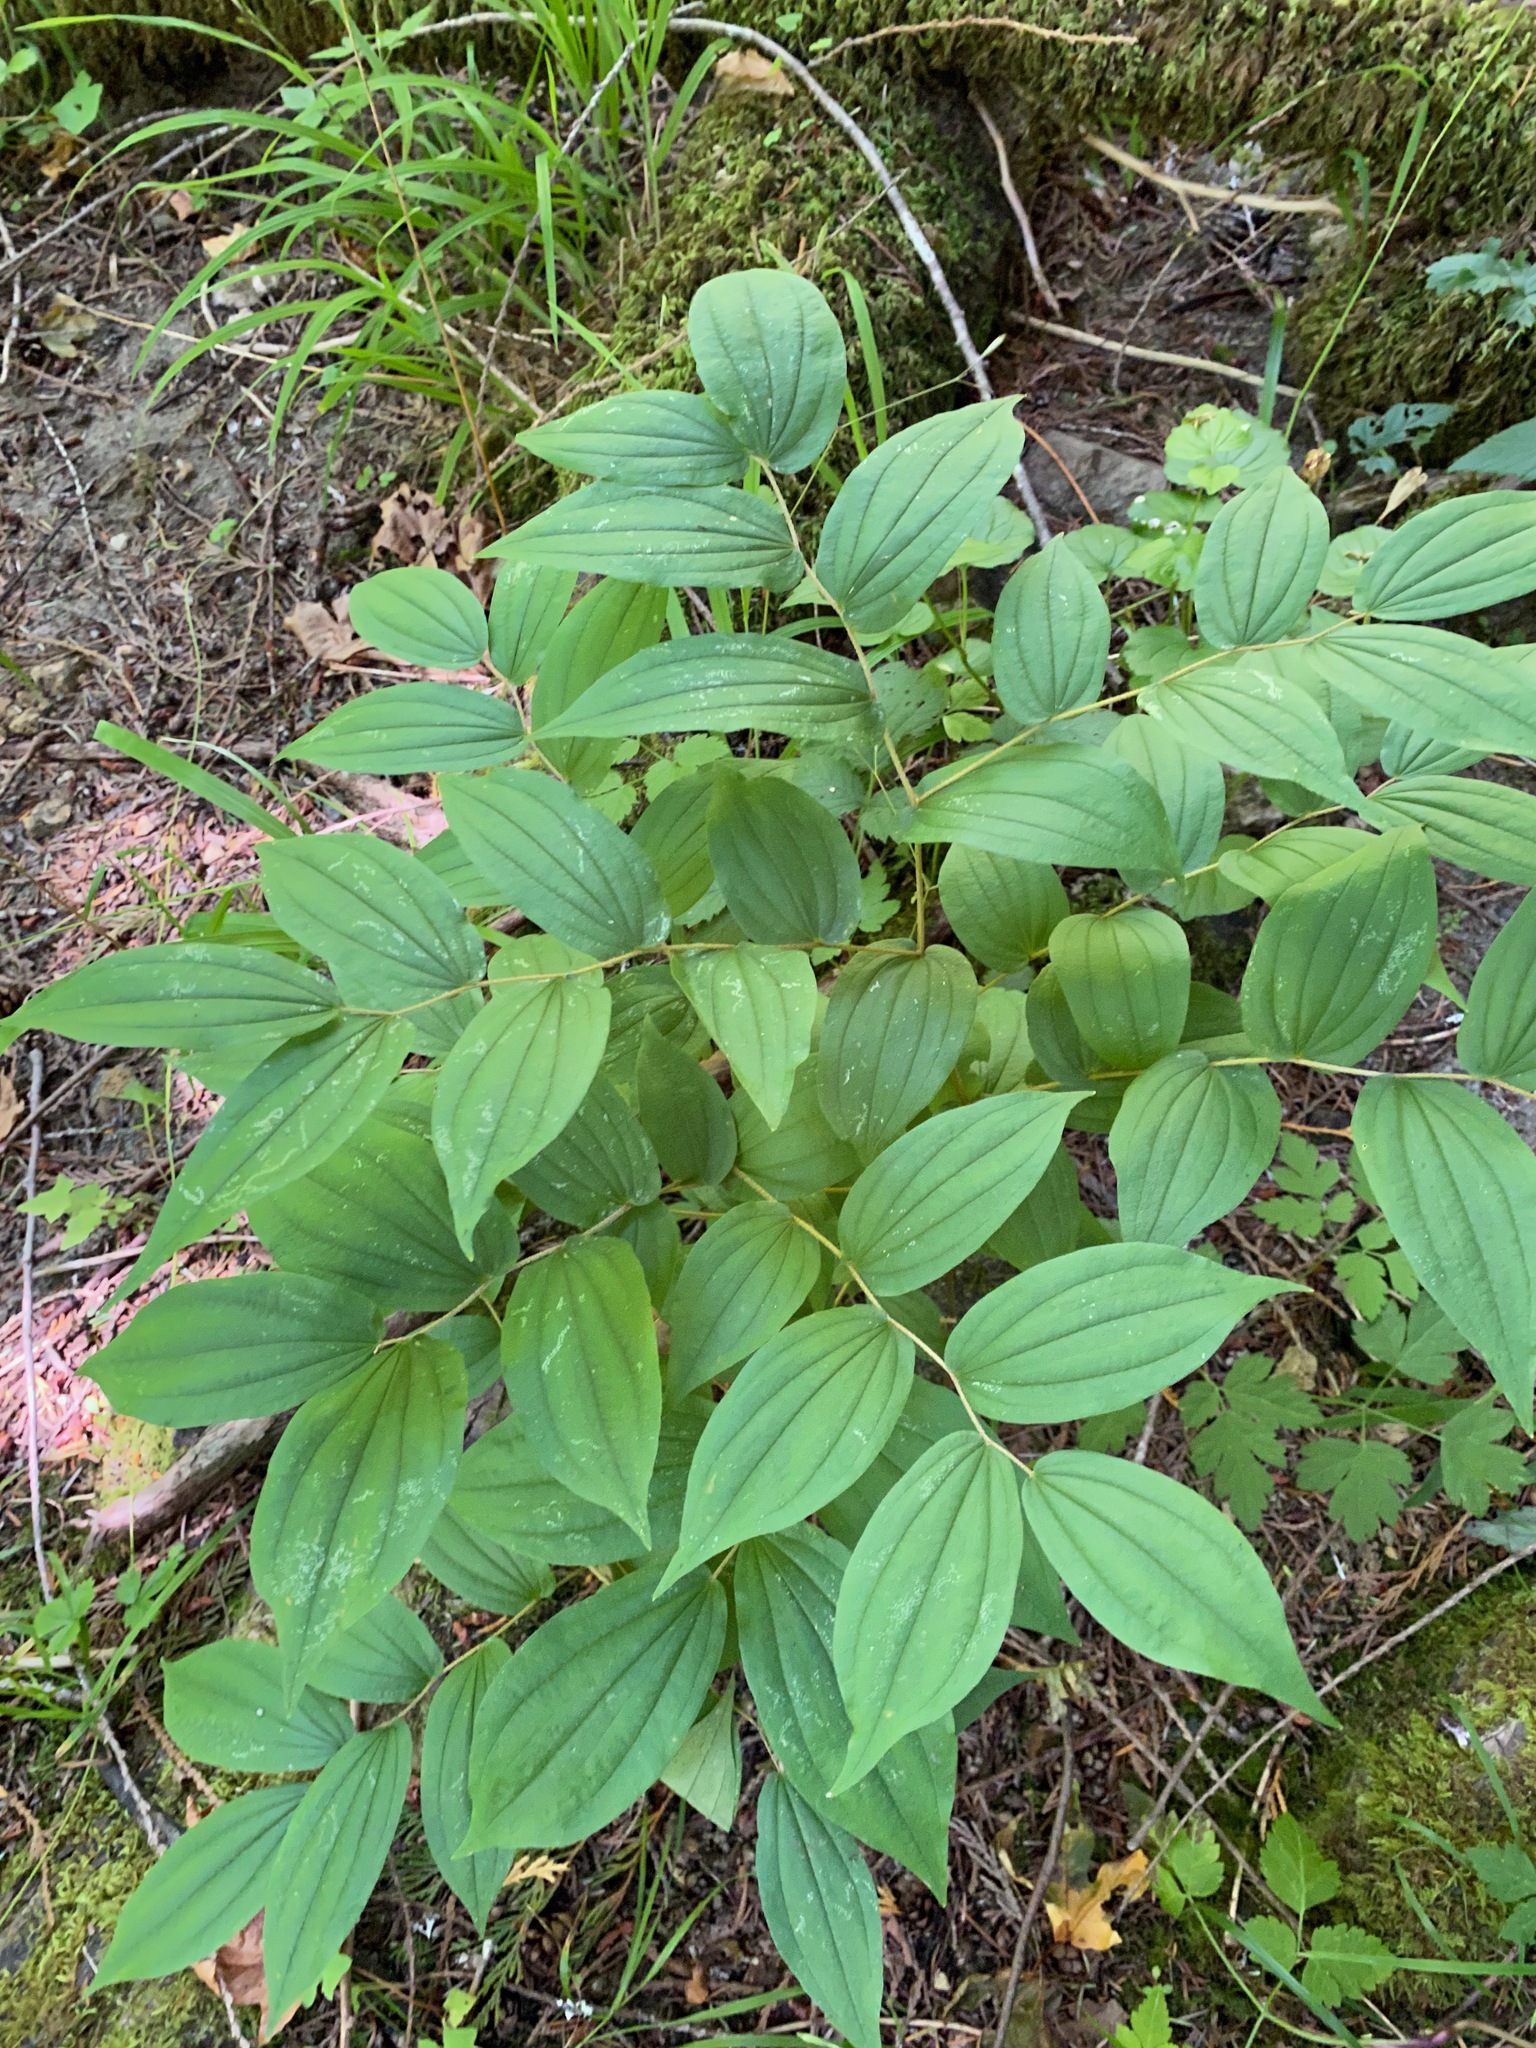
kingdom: Plantae
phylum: Tracheophyta
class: Liliopsida
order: Liliales
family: Liliaceae
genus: Prosartes
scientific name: Prosartes hookeri
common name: Fairy-bells
